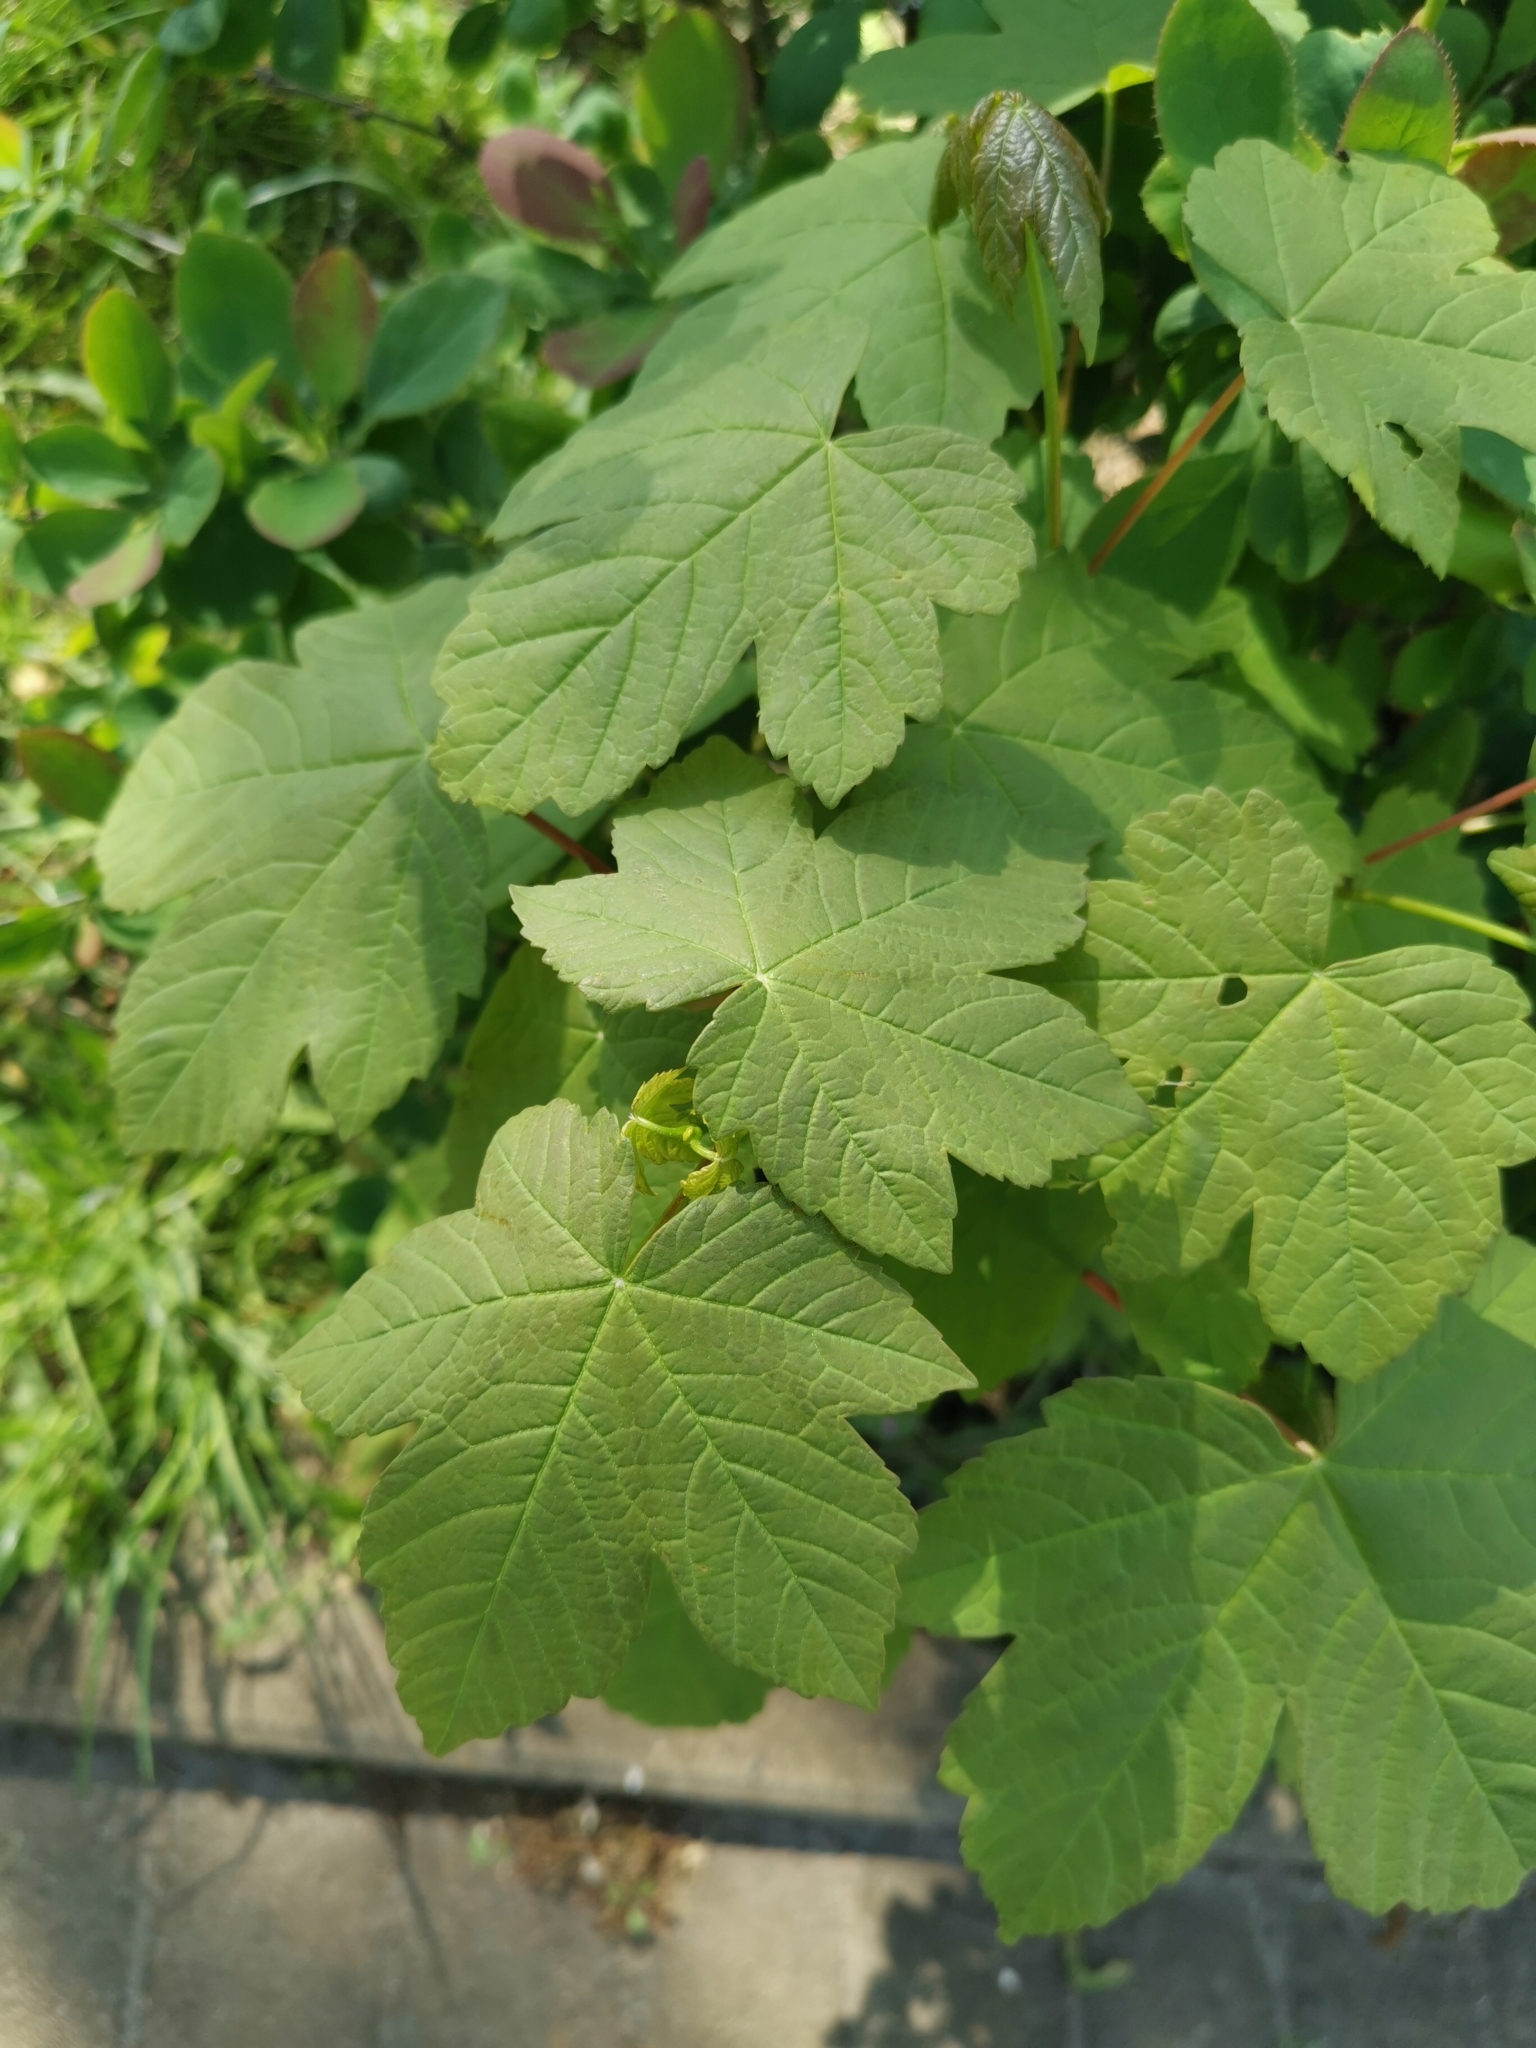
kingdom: Plantae
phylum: Tracheophyta
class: Magnoliopsida
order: Sapindales
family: Sapindaceae
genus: Acer
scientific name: Acer pseudoplatanus
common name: Sycamore
